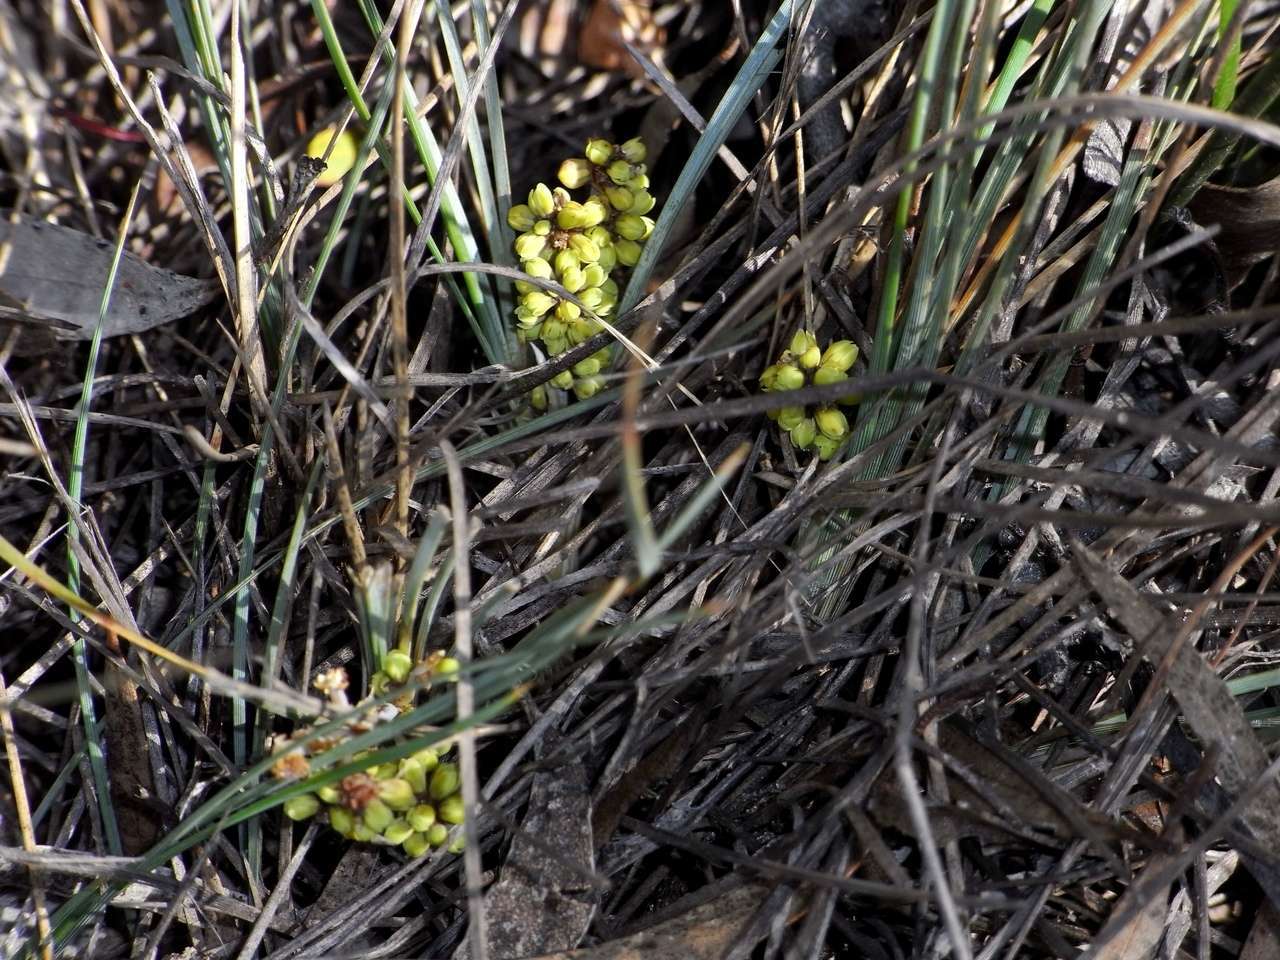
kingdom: Plantae
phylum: Tracheophyta
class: Liliopsida
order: Asparagales
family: Asparagaceae
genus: Lomandra
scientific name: Lomandra collina
